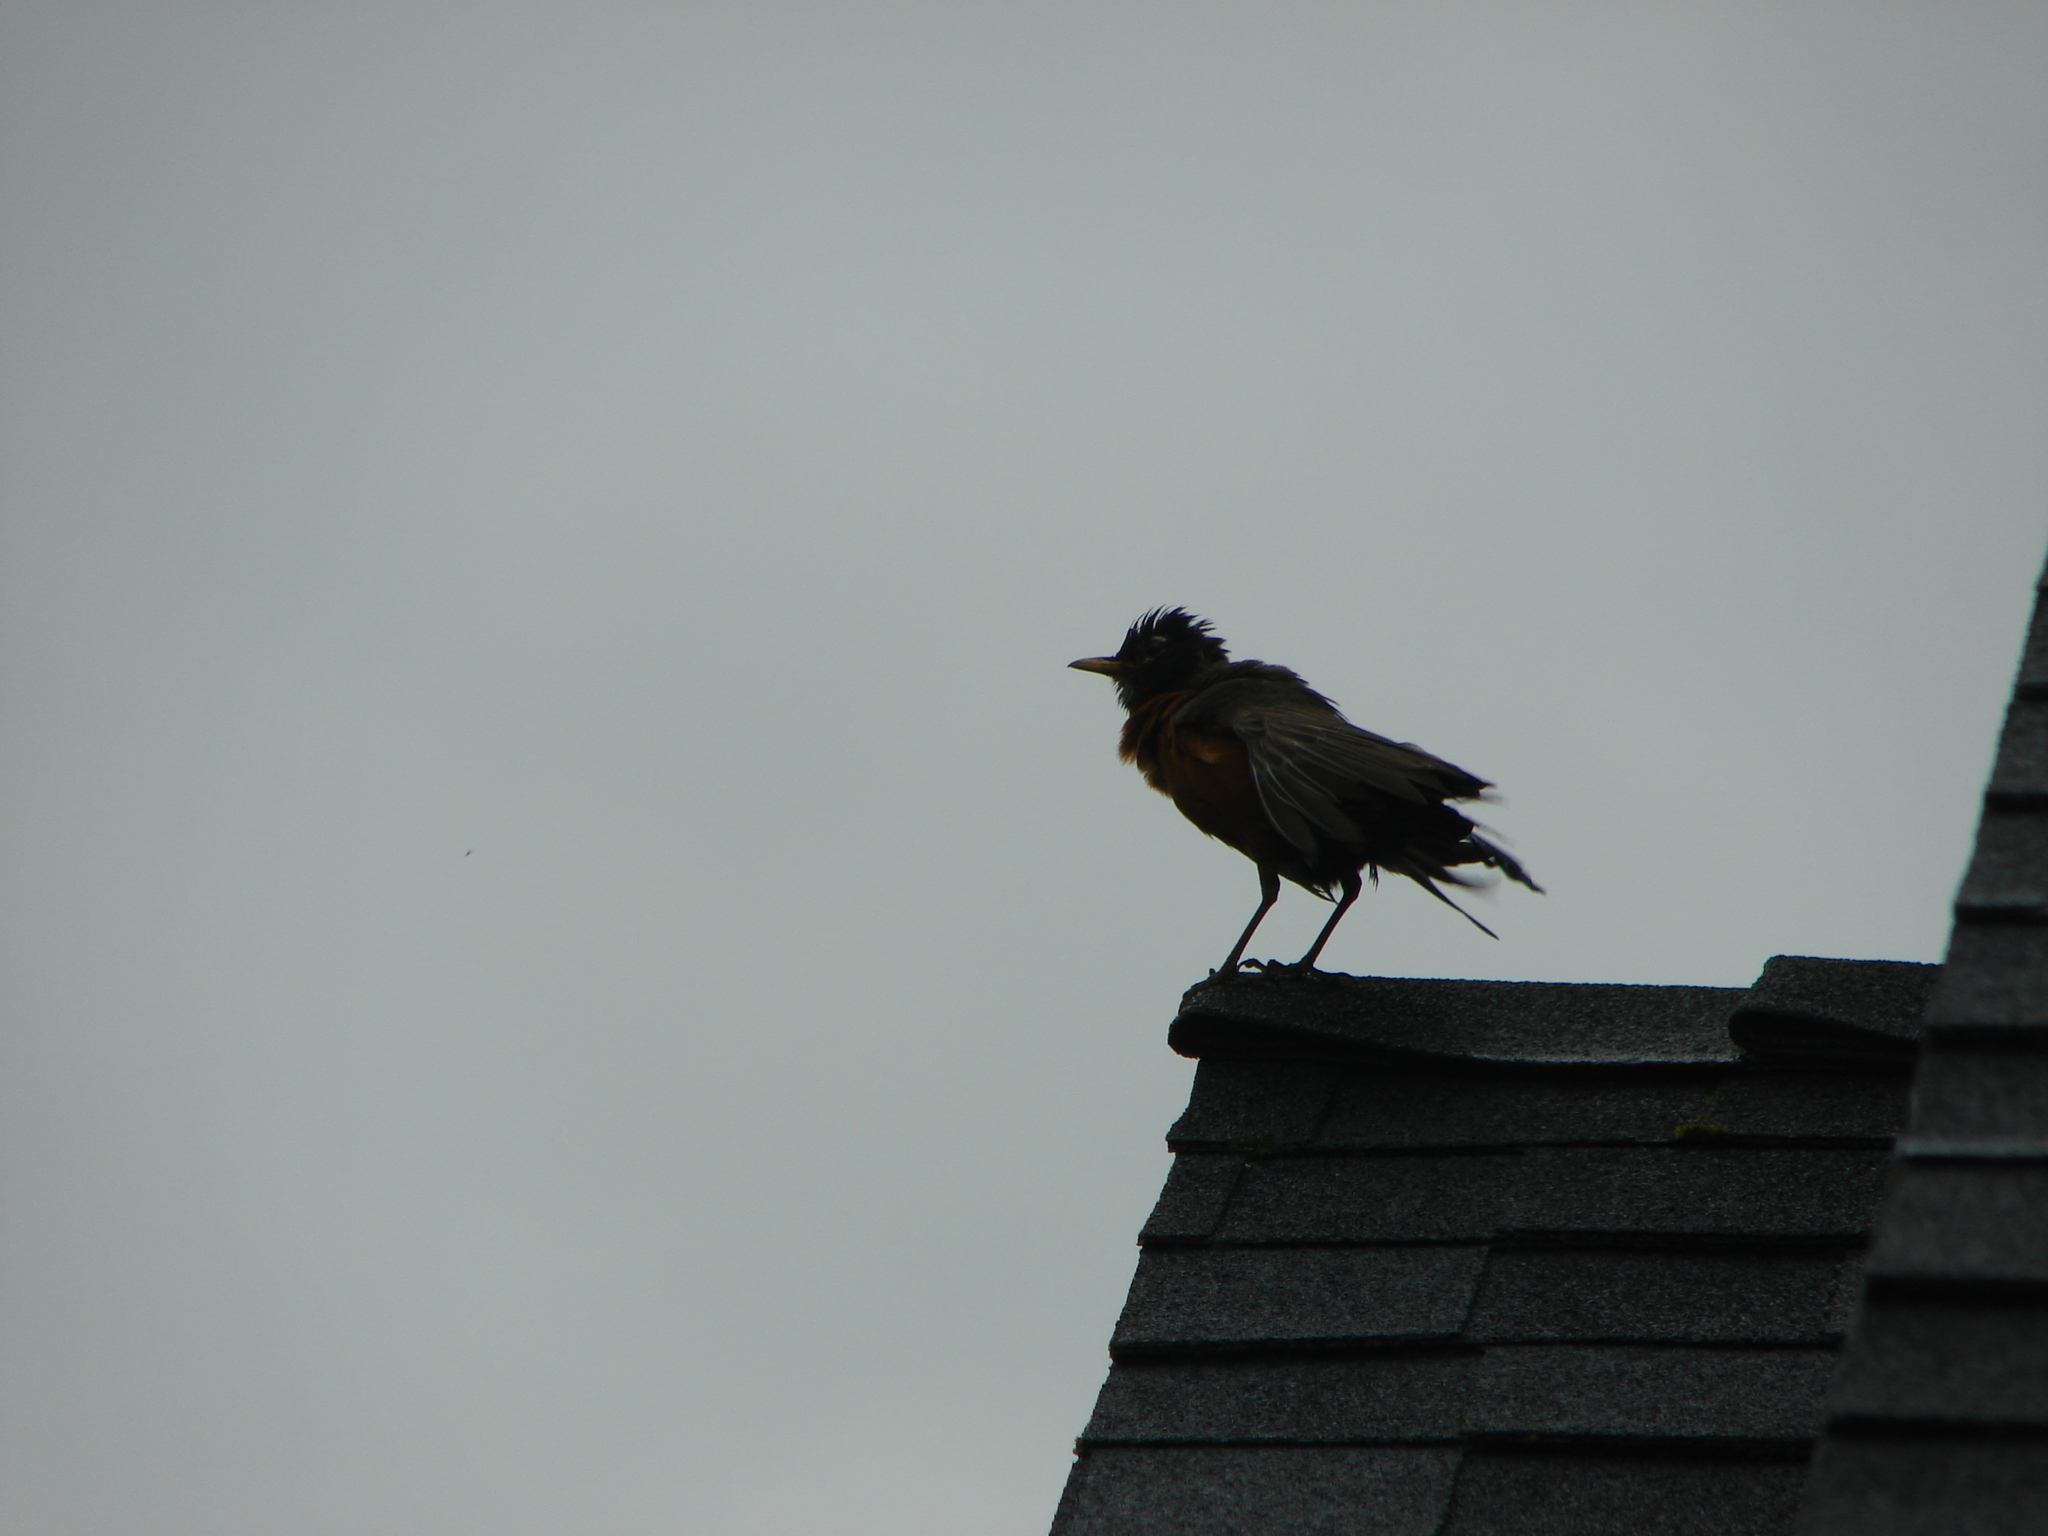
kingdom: Animalia
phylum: Chordata
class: Aves
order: Passeriformes
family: Turdidae
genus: Turdus
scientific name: Turdus migratorius
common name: American robin
